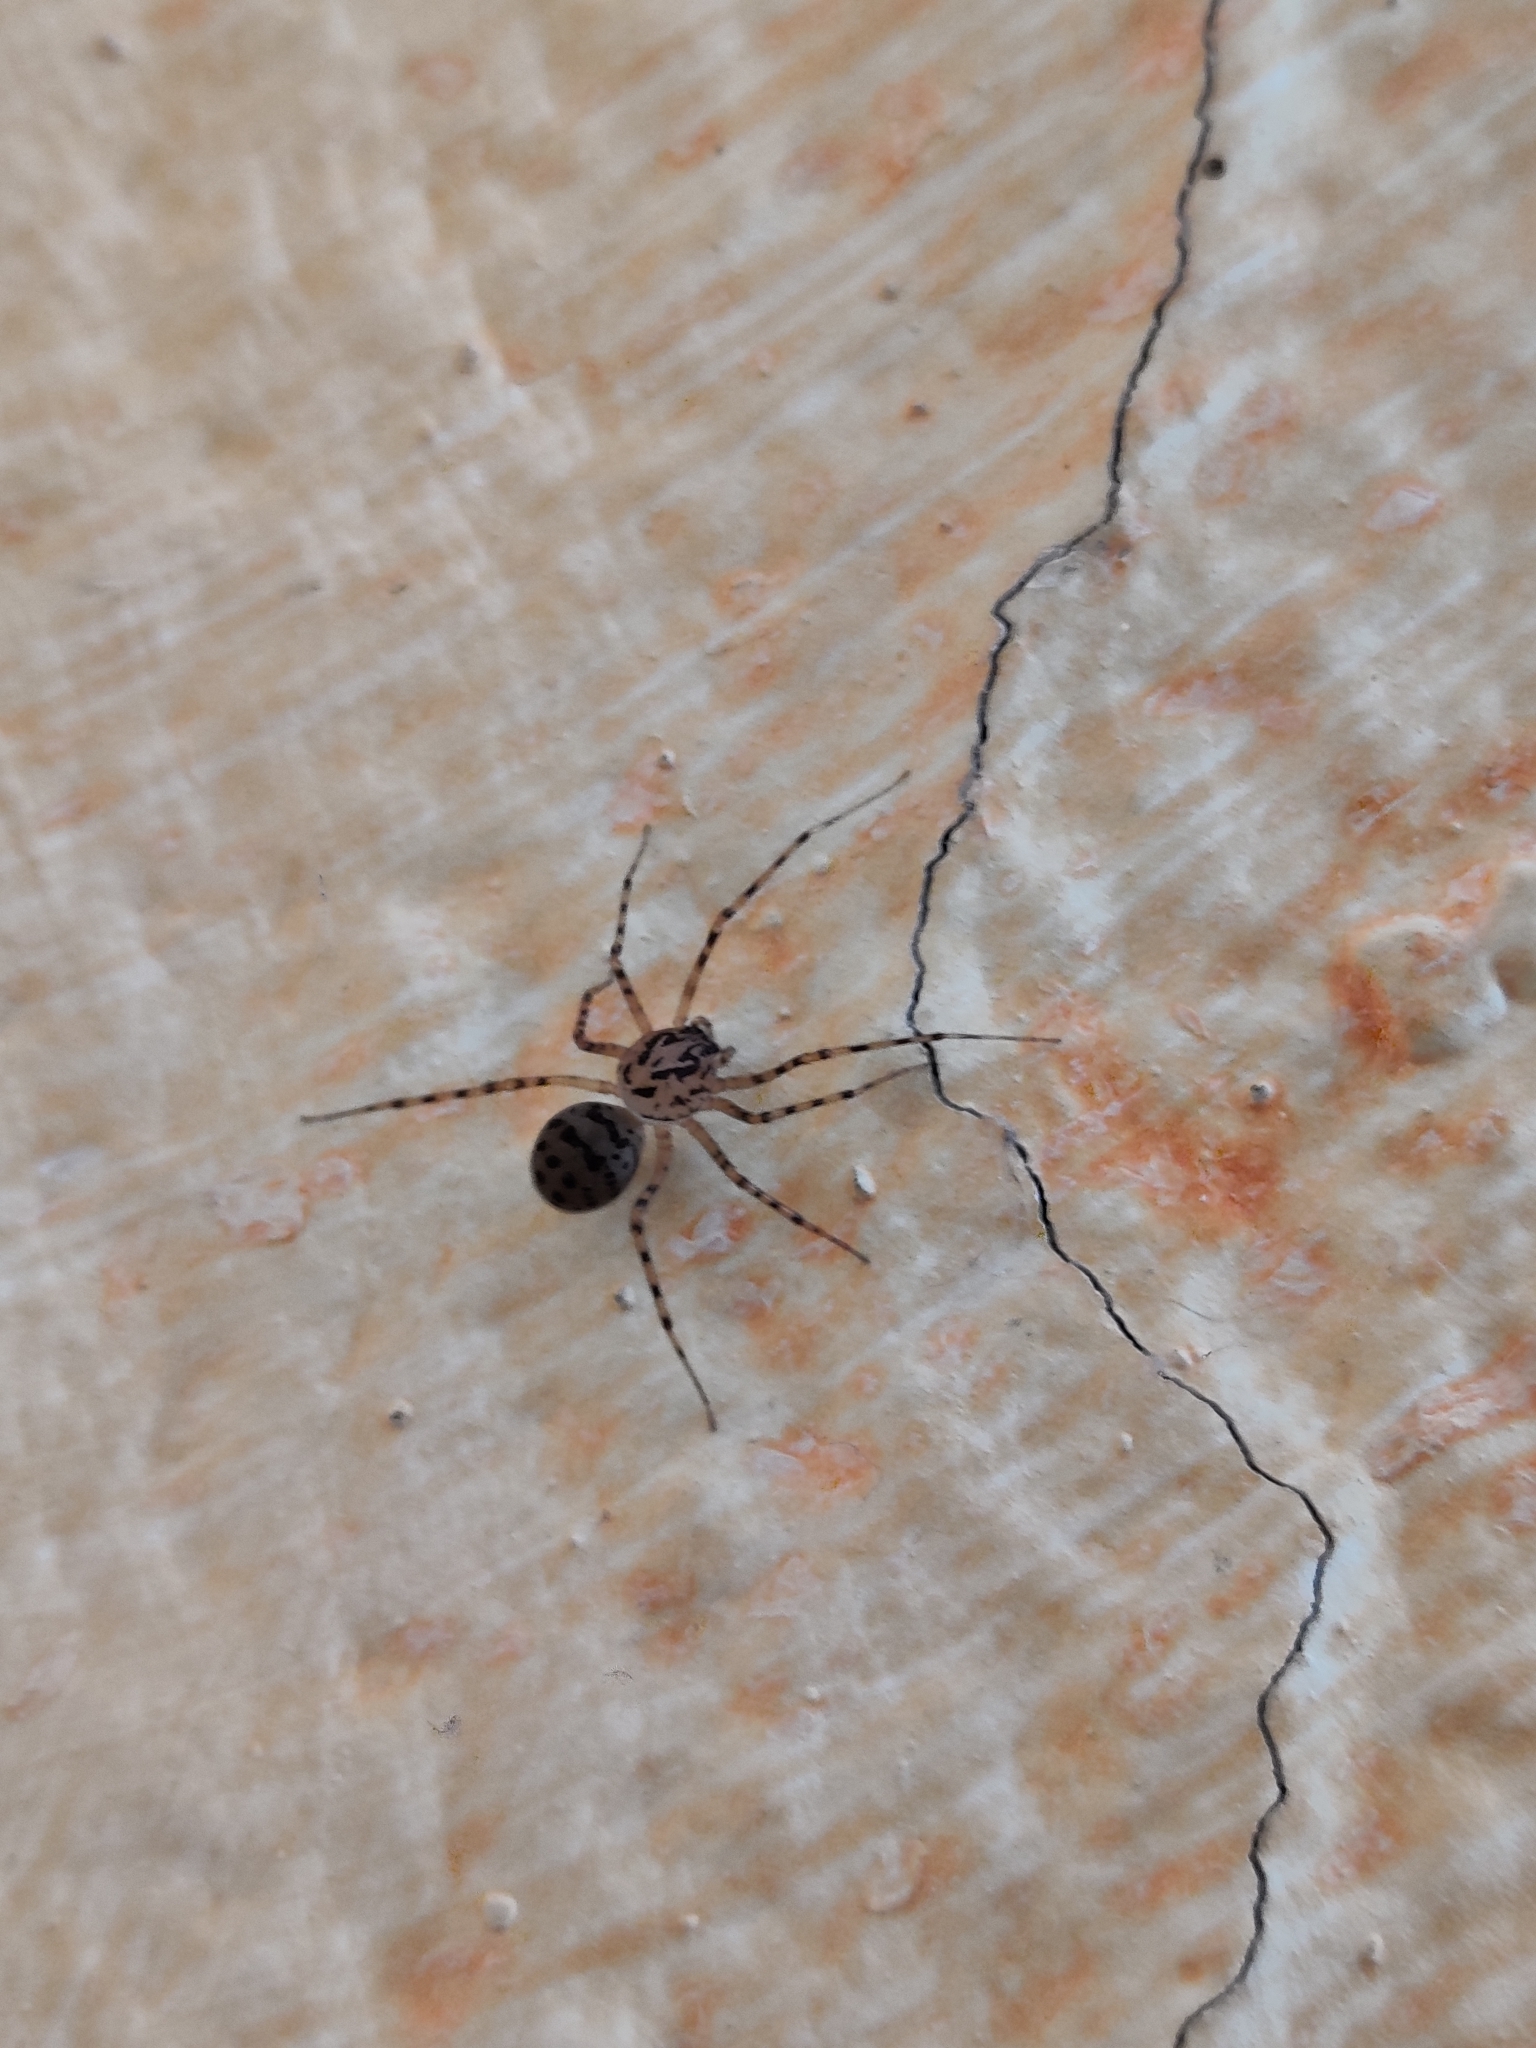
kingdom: Animalia
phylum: Arthropoda
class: Arachnida
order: Araneae
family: Scytodidae
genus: Scytodes
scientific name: Scytodes thoracica
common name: Spitting spider
